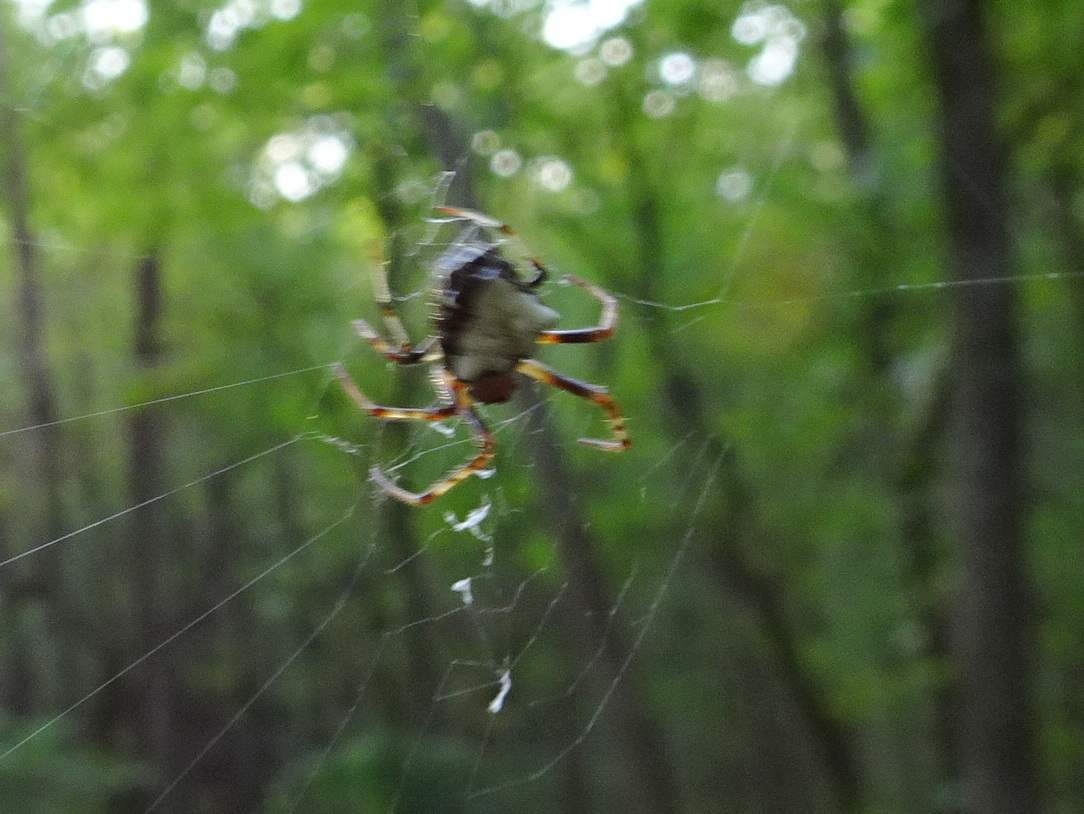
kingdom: Animalia
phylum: Arthropoda
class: Arachnida
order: Araneae
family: Araneidae
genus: Verrucosa
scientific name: Verrucosa arenata
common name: Orb weavers
